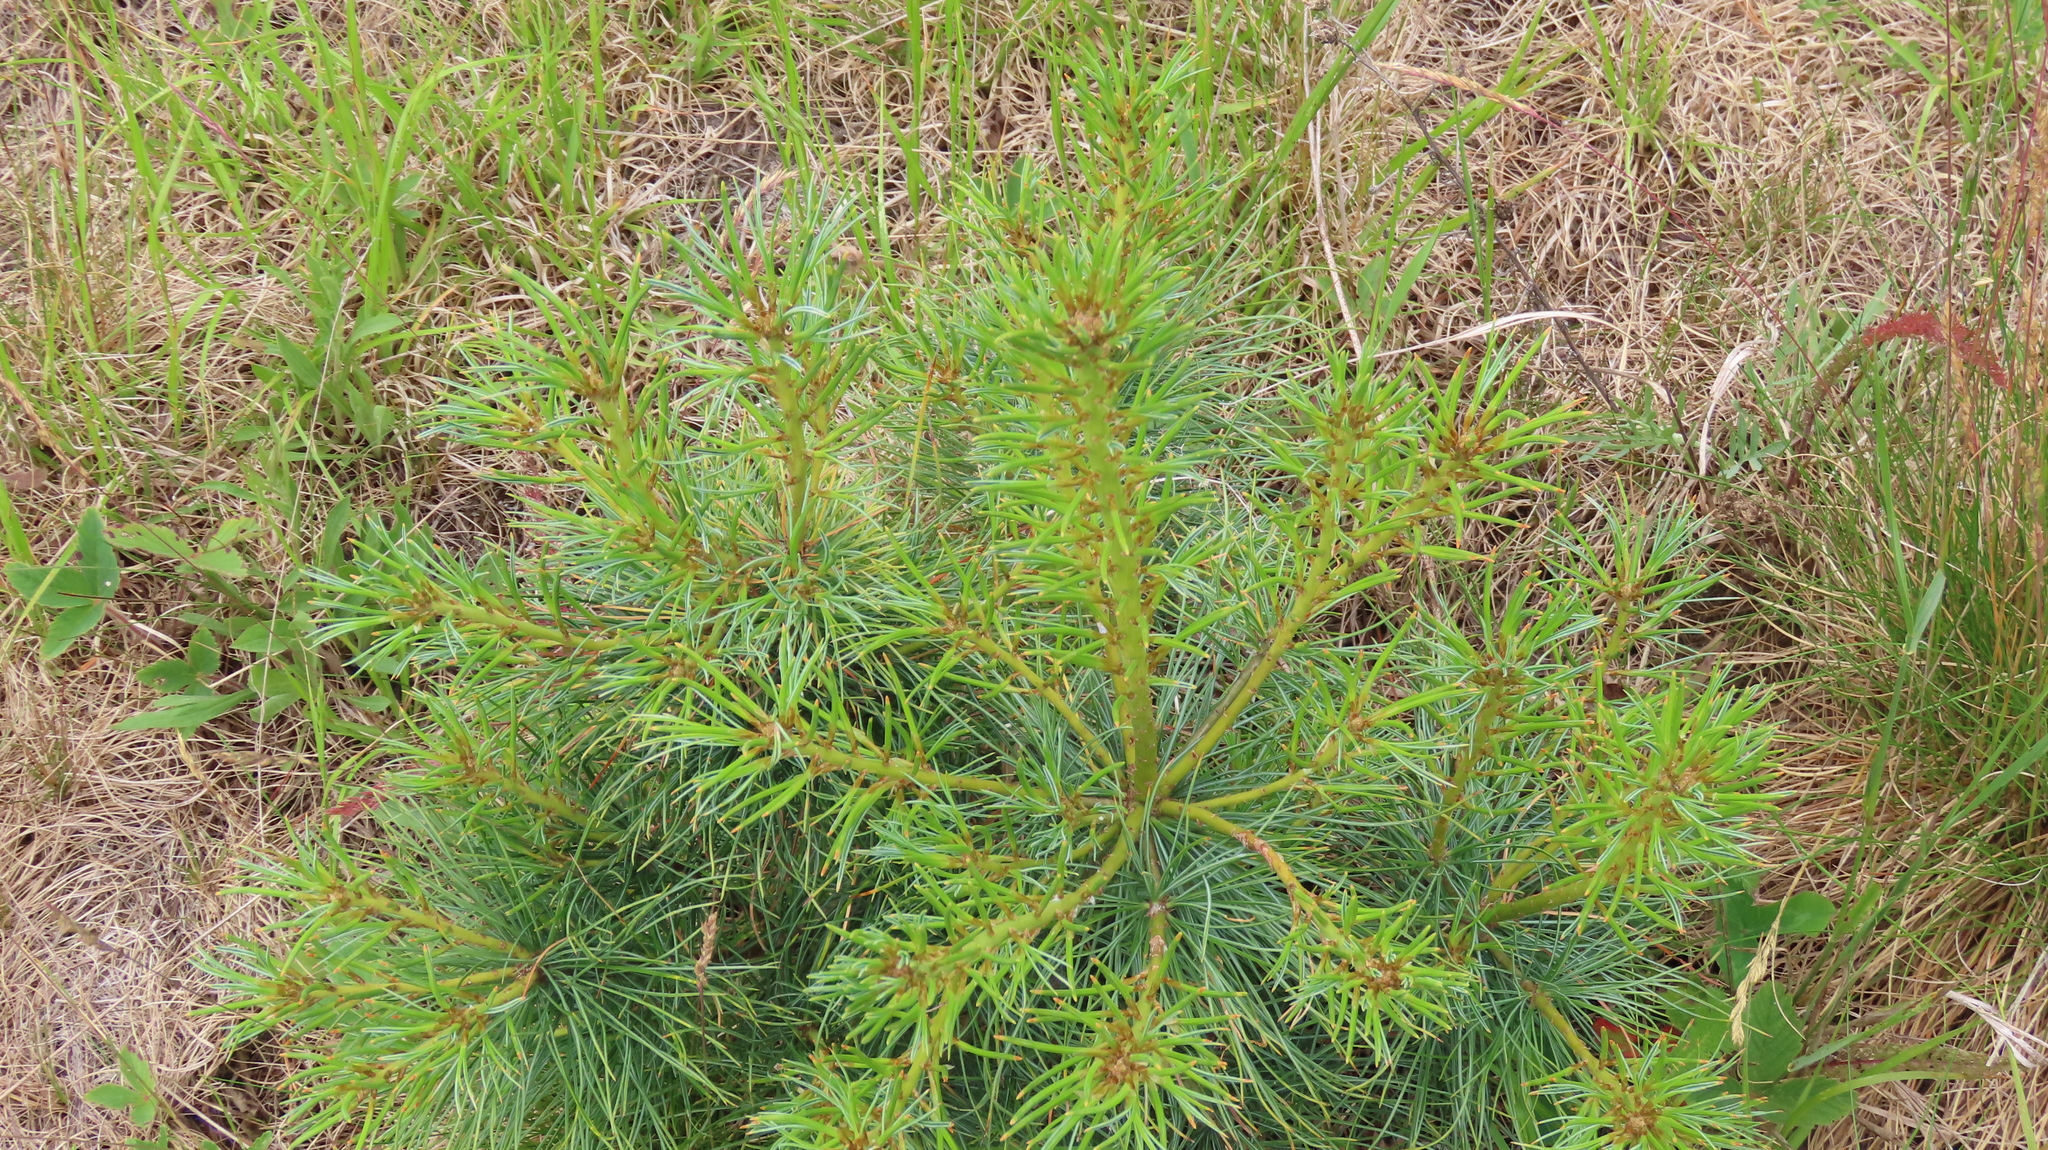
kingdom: Plantae
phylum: Tracheophyta
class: Pinopsida
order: Pinales
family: Pinaceae
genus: Pinus
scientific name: Pinus strobus
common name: Weymouth pine
